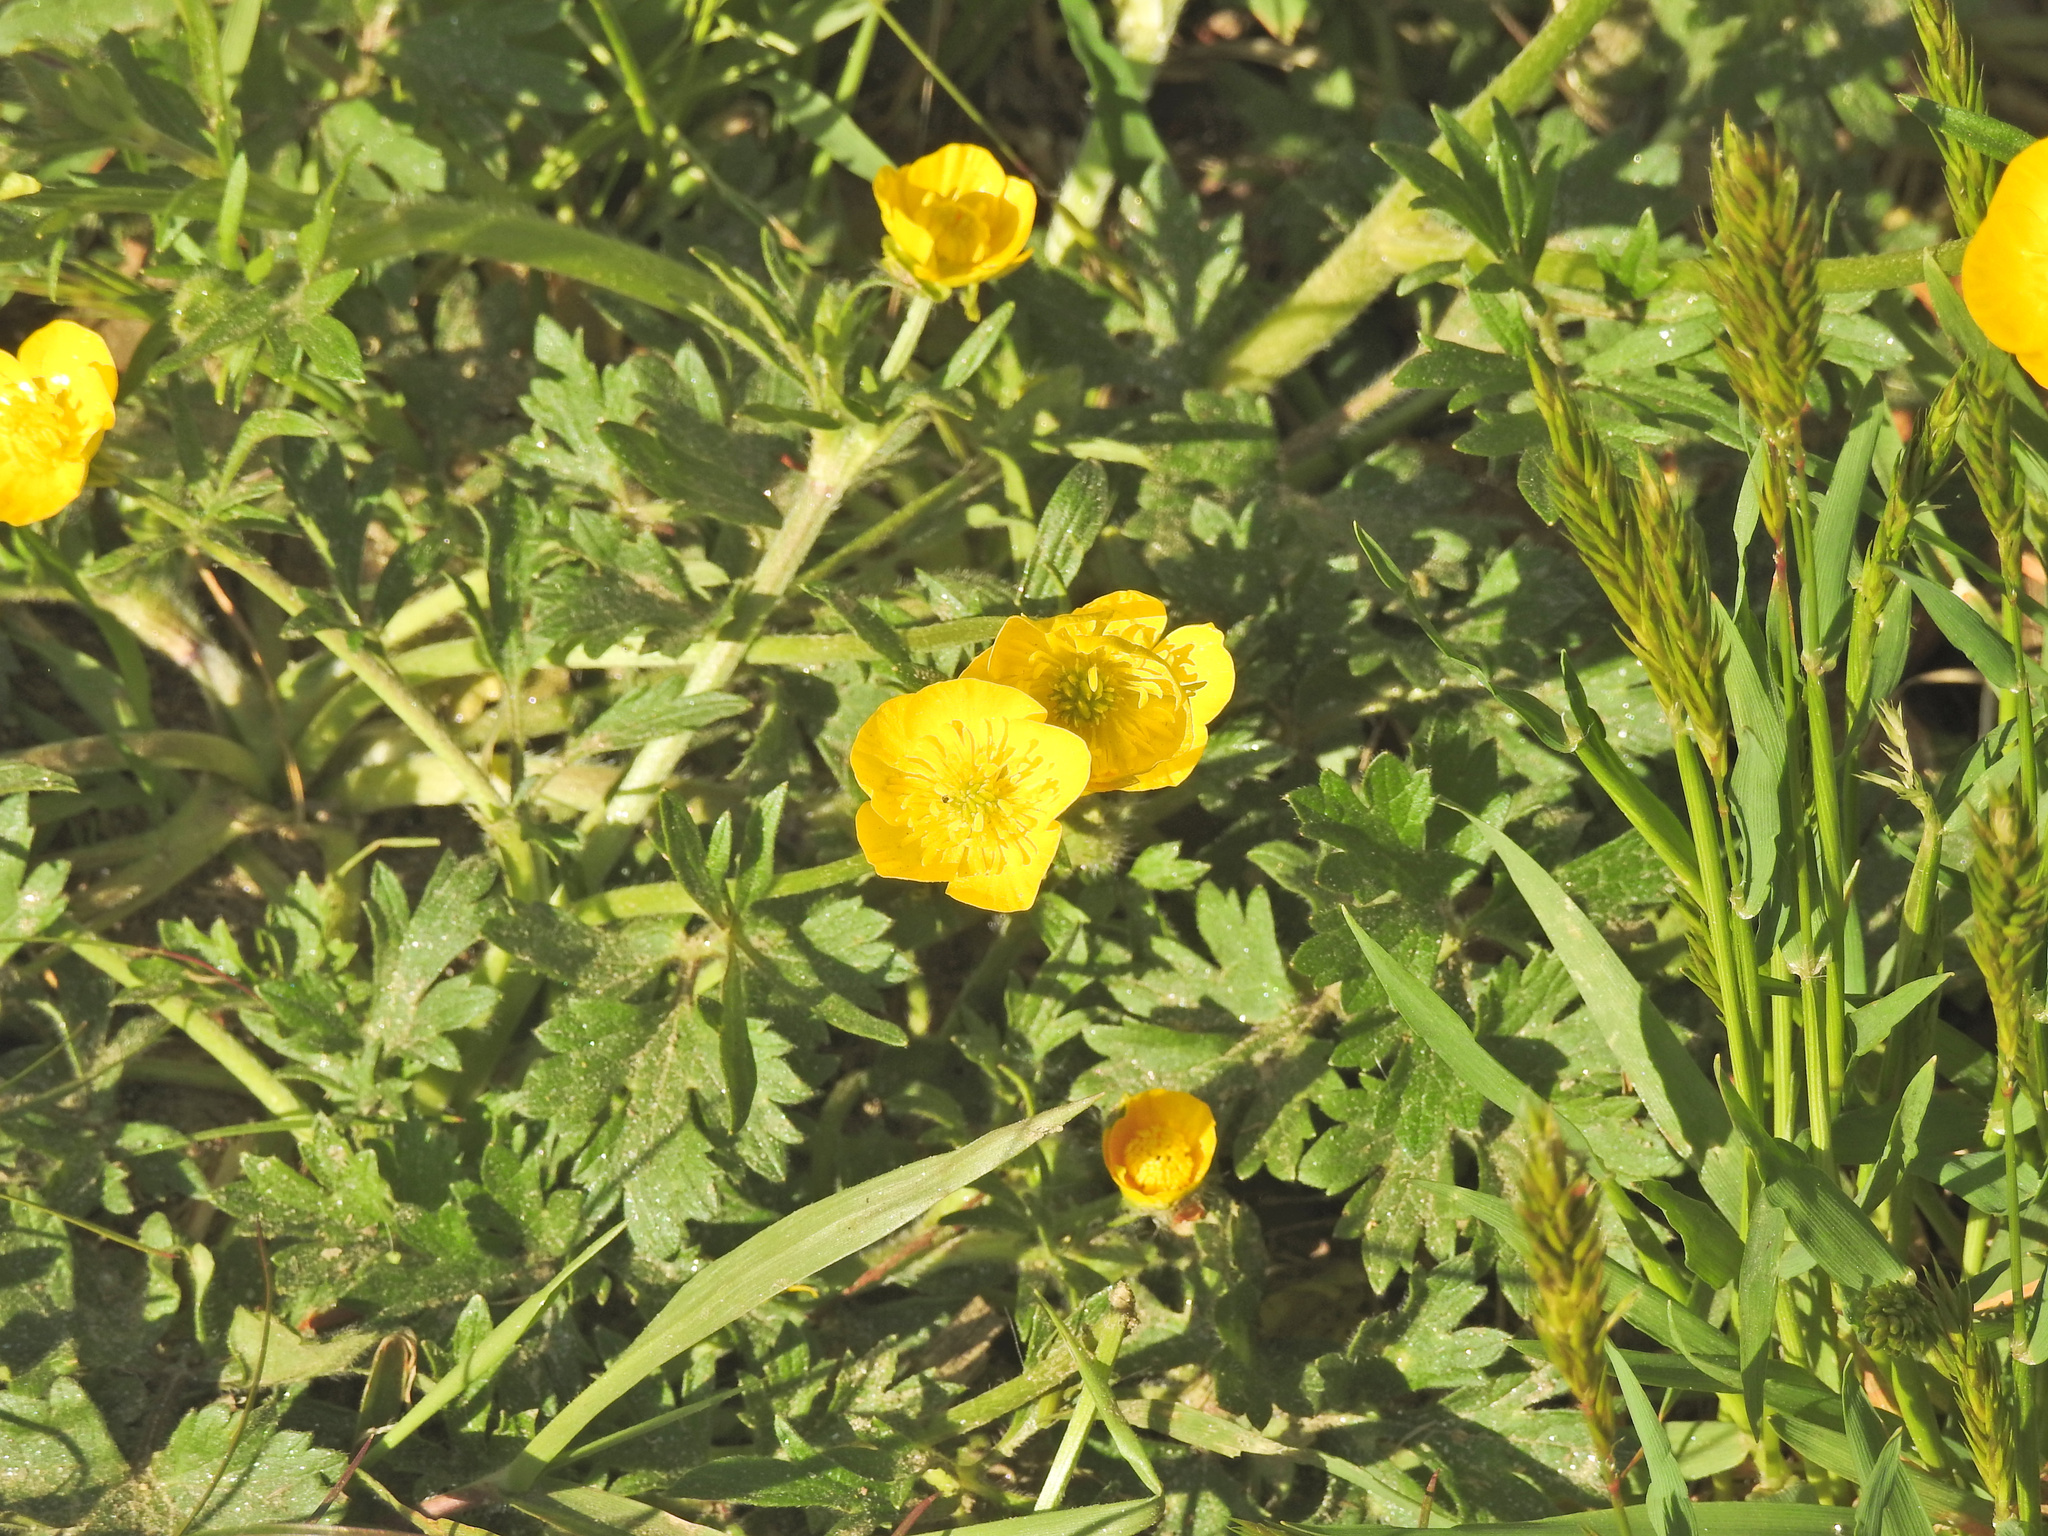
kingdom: Plantae
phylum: Tracheophyta
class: Magnoliopsida
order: Ranunculales
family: Ranunculaceae
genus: Ranunculus
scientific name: Ranunculus bulbosus
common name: Bulbous buttercup
